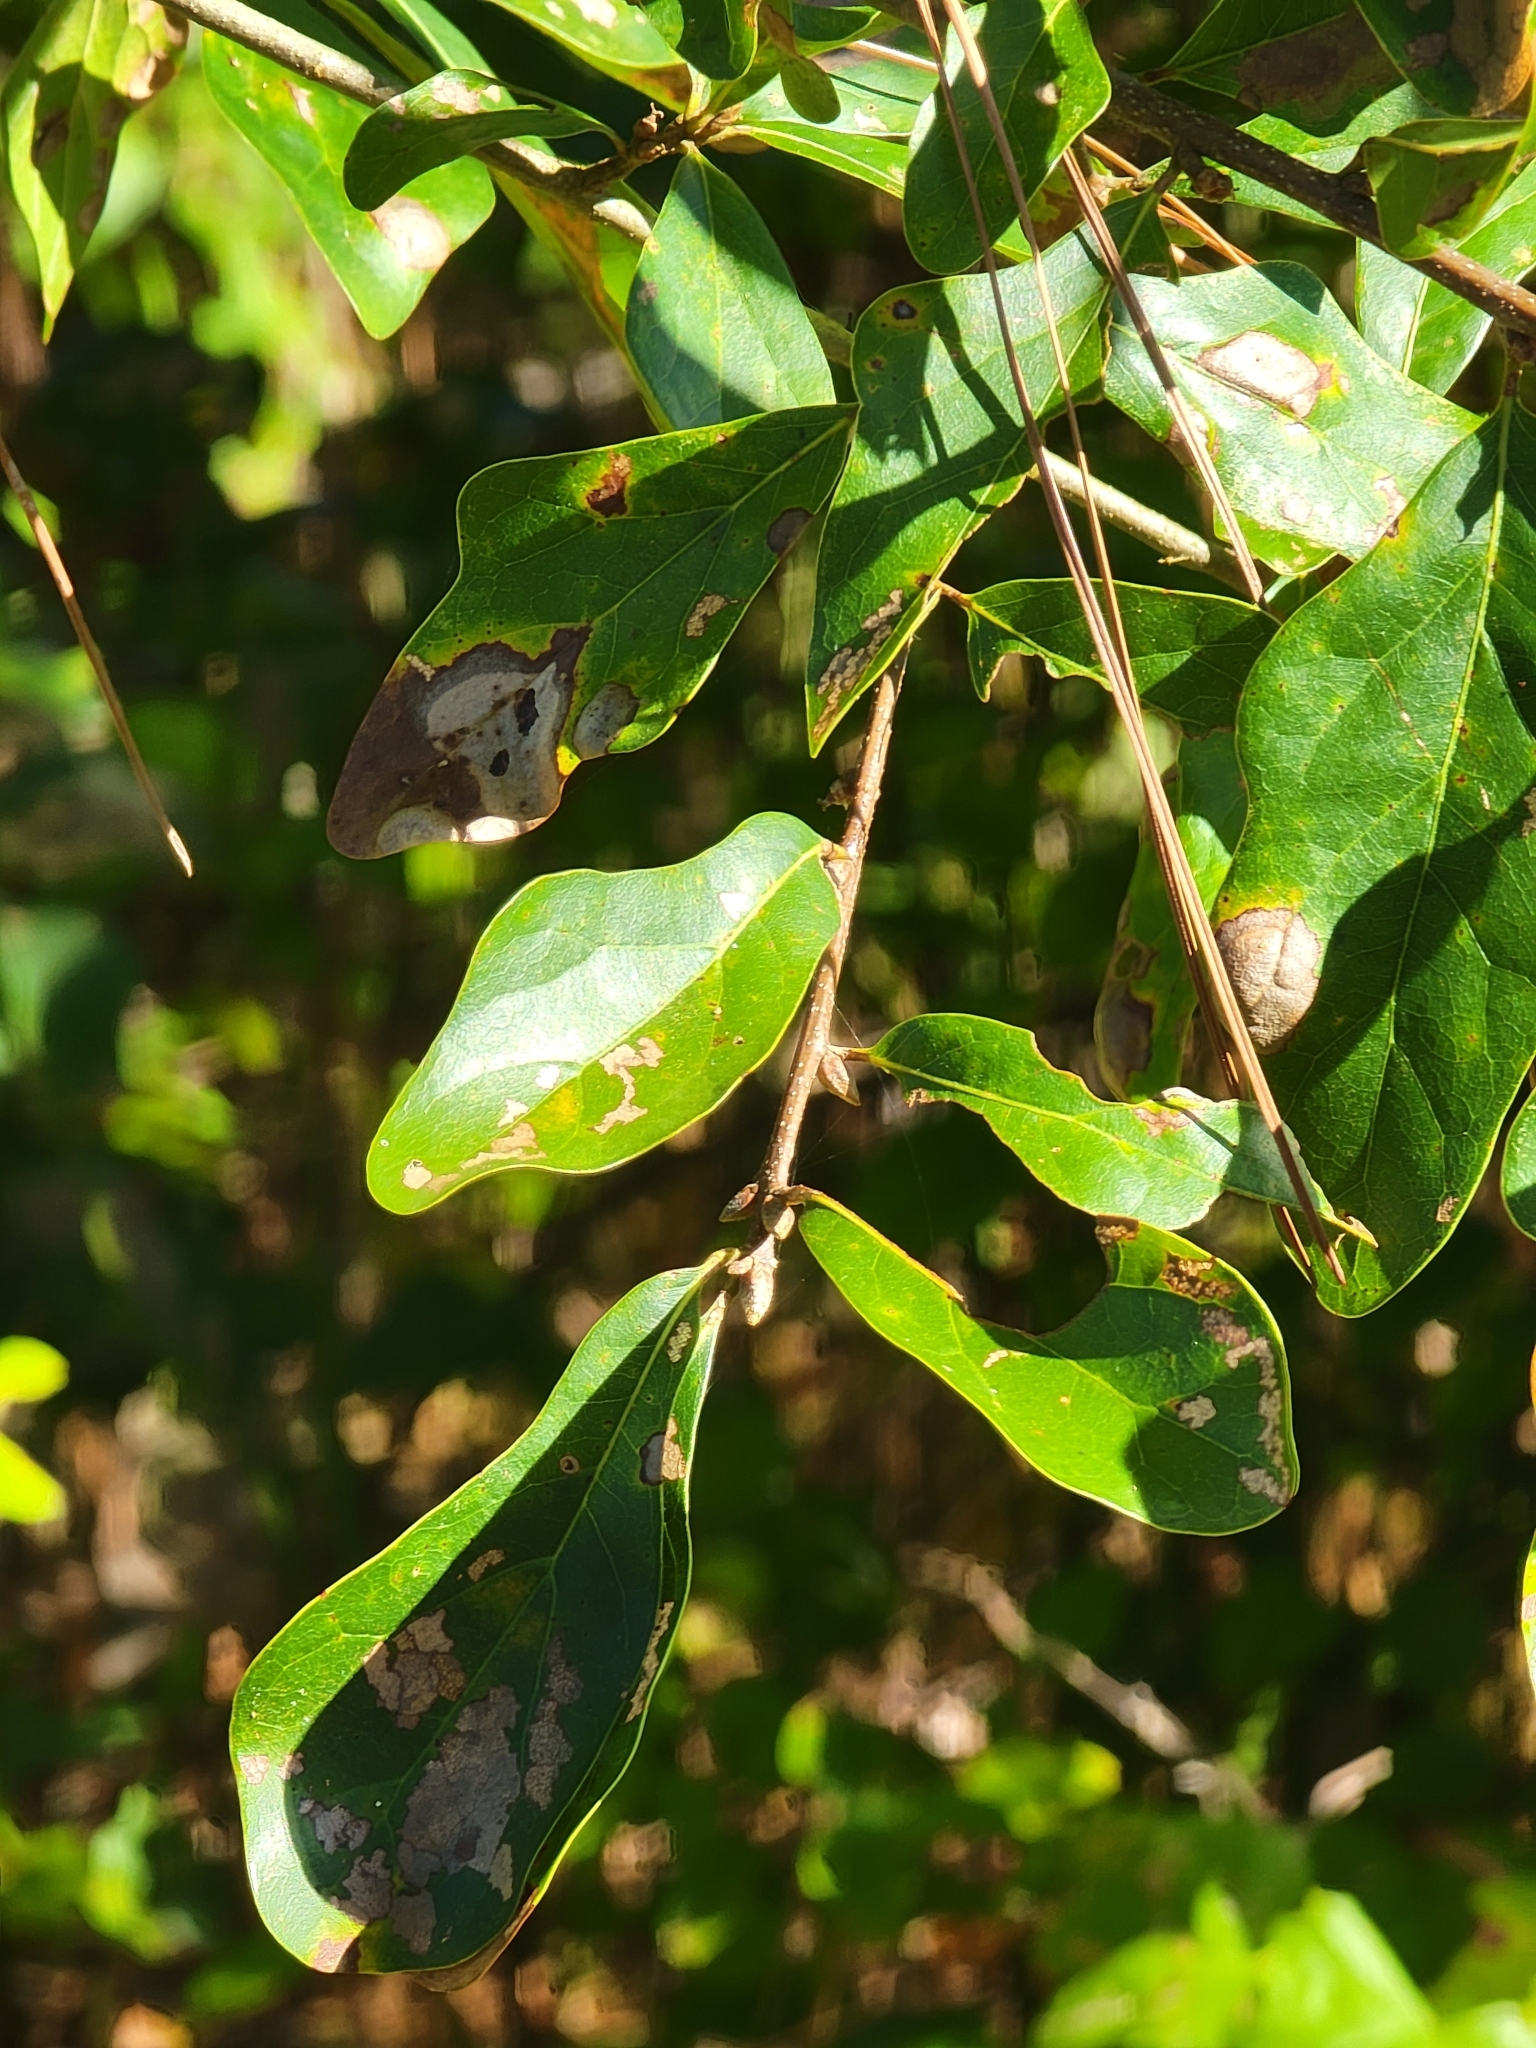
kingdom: Plantae
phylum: Tracheophyta
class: Magnoliopsida
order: Fagales
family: Fagaceae
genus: Quercus
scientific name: Quercus nigra
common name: Water oak
